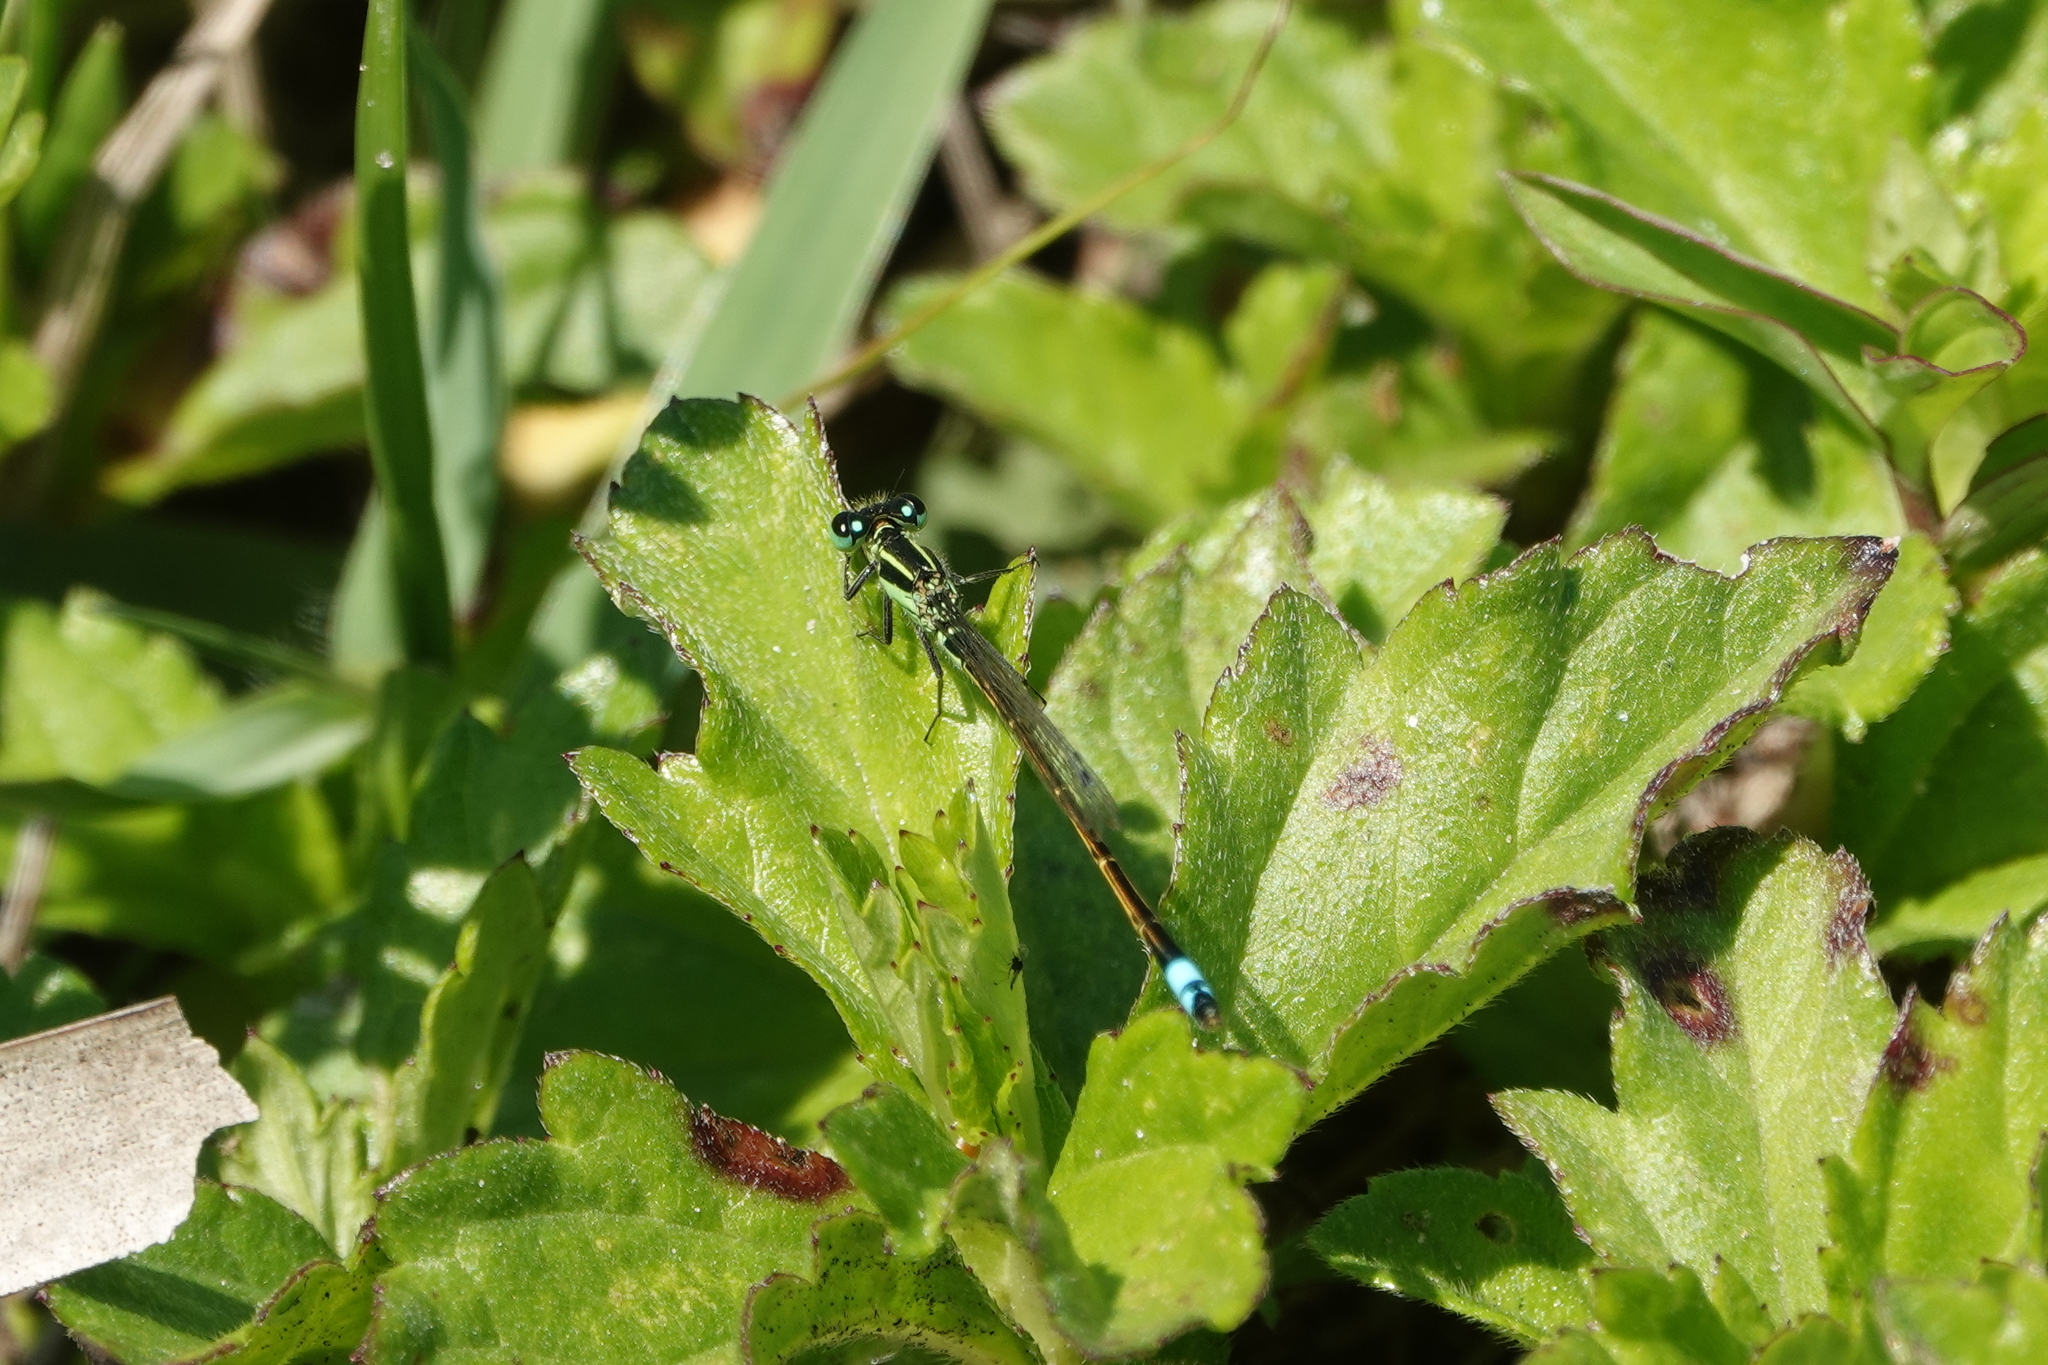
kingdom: Animalia
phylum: Arthropoda
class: Insecta
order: Odonata
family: Coenagrionidae
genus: Ischnura
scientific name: Ischnura ramburii
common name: Rambur's forktail
